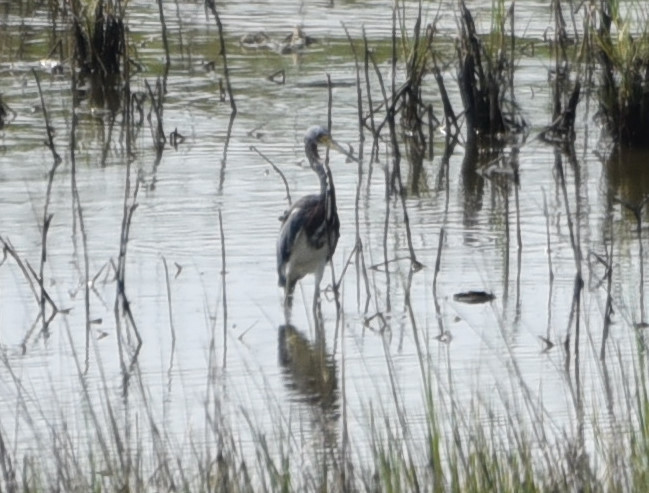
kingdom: Animalia
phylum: Chordata
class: Aves
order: Pelecaniformes
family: Ardeidae
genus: Egretta
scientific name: Egretta tricolor
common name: Tricolored heron
